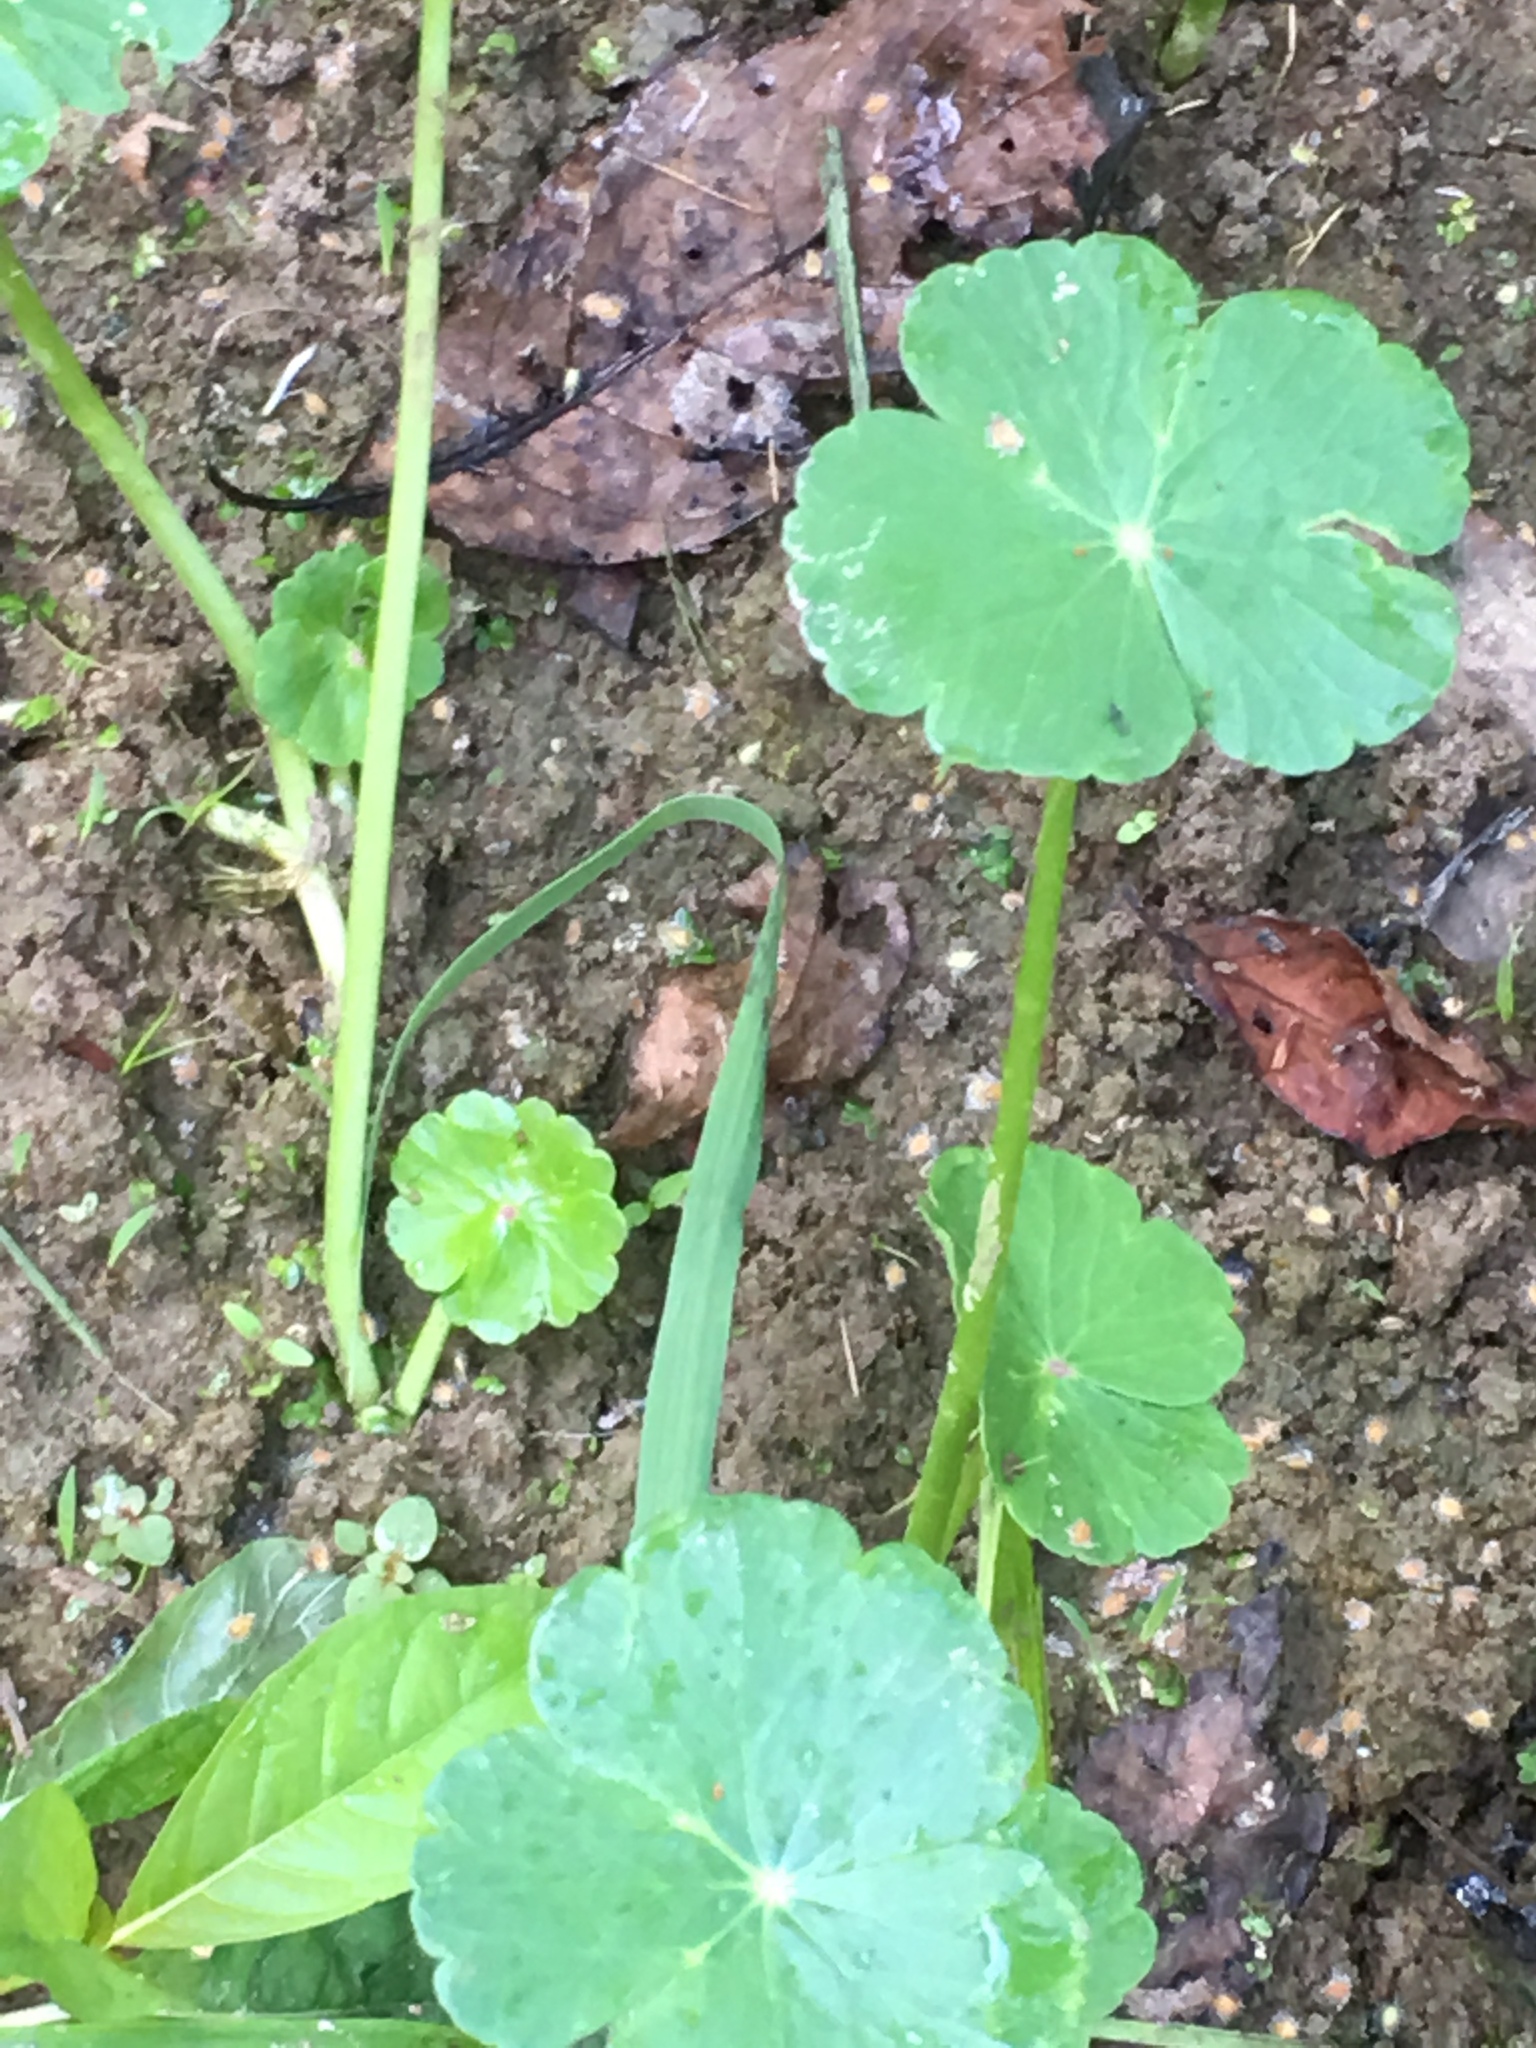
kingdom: Plantae
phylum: Tracheophyta
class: Magnoliopsida
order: Apiales
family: Araliaceae
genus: Hydrocotyle
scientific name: Hydrocotyle ranunculoides
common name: Floating pennywort
